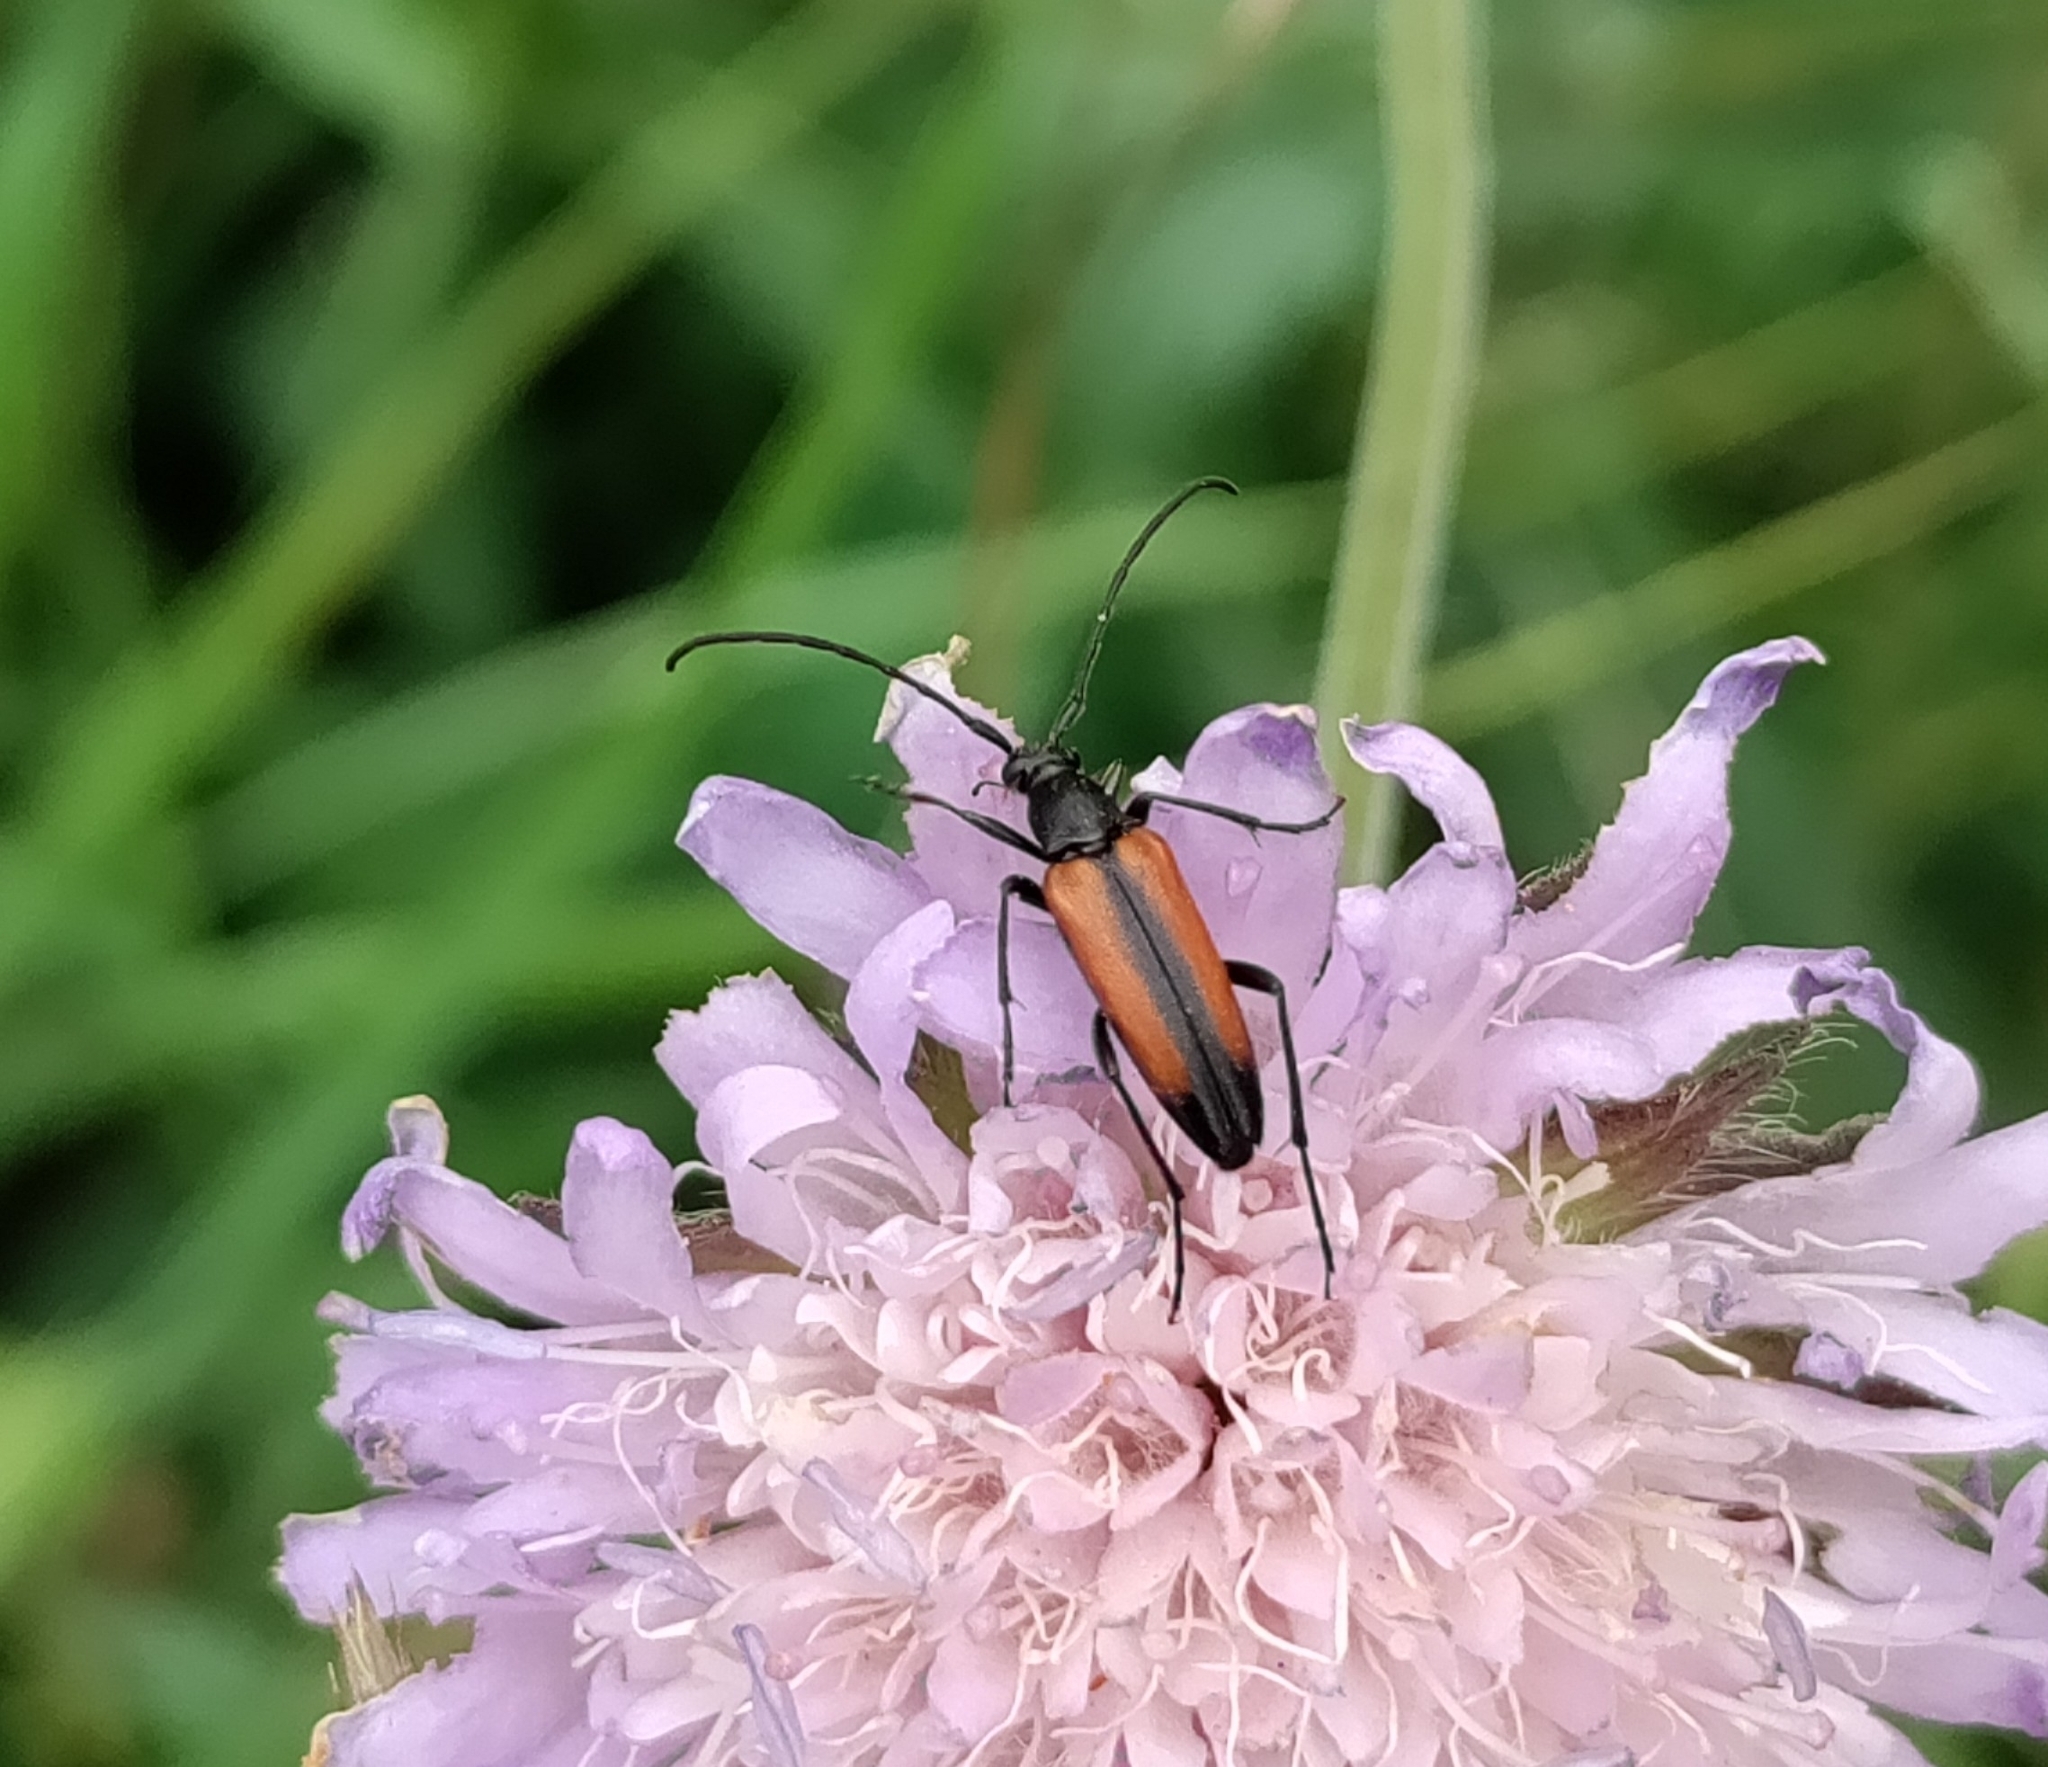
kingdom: Animalia
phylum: Arthropoda
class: Insecta
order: Coleoptera
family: Cerambycidae
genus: Stenurella
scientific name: Stenurella melanura
